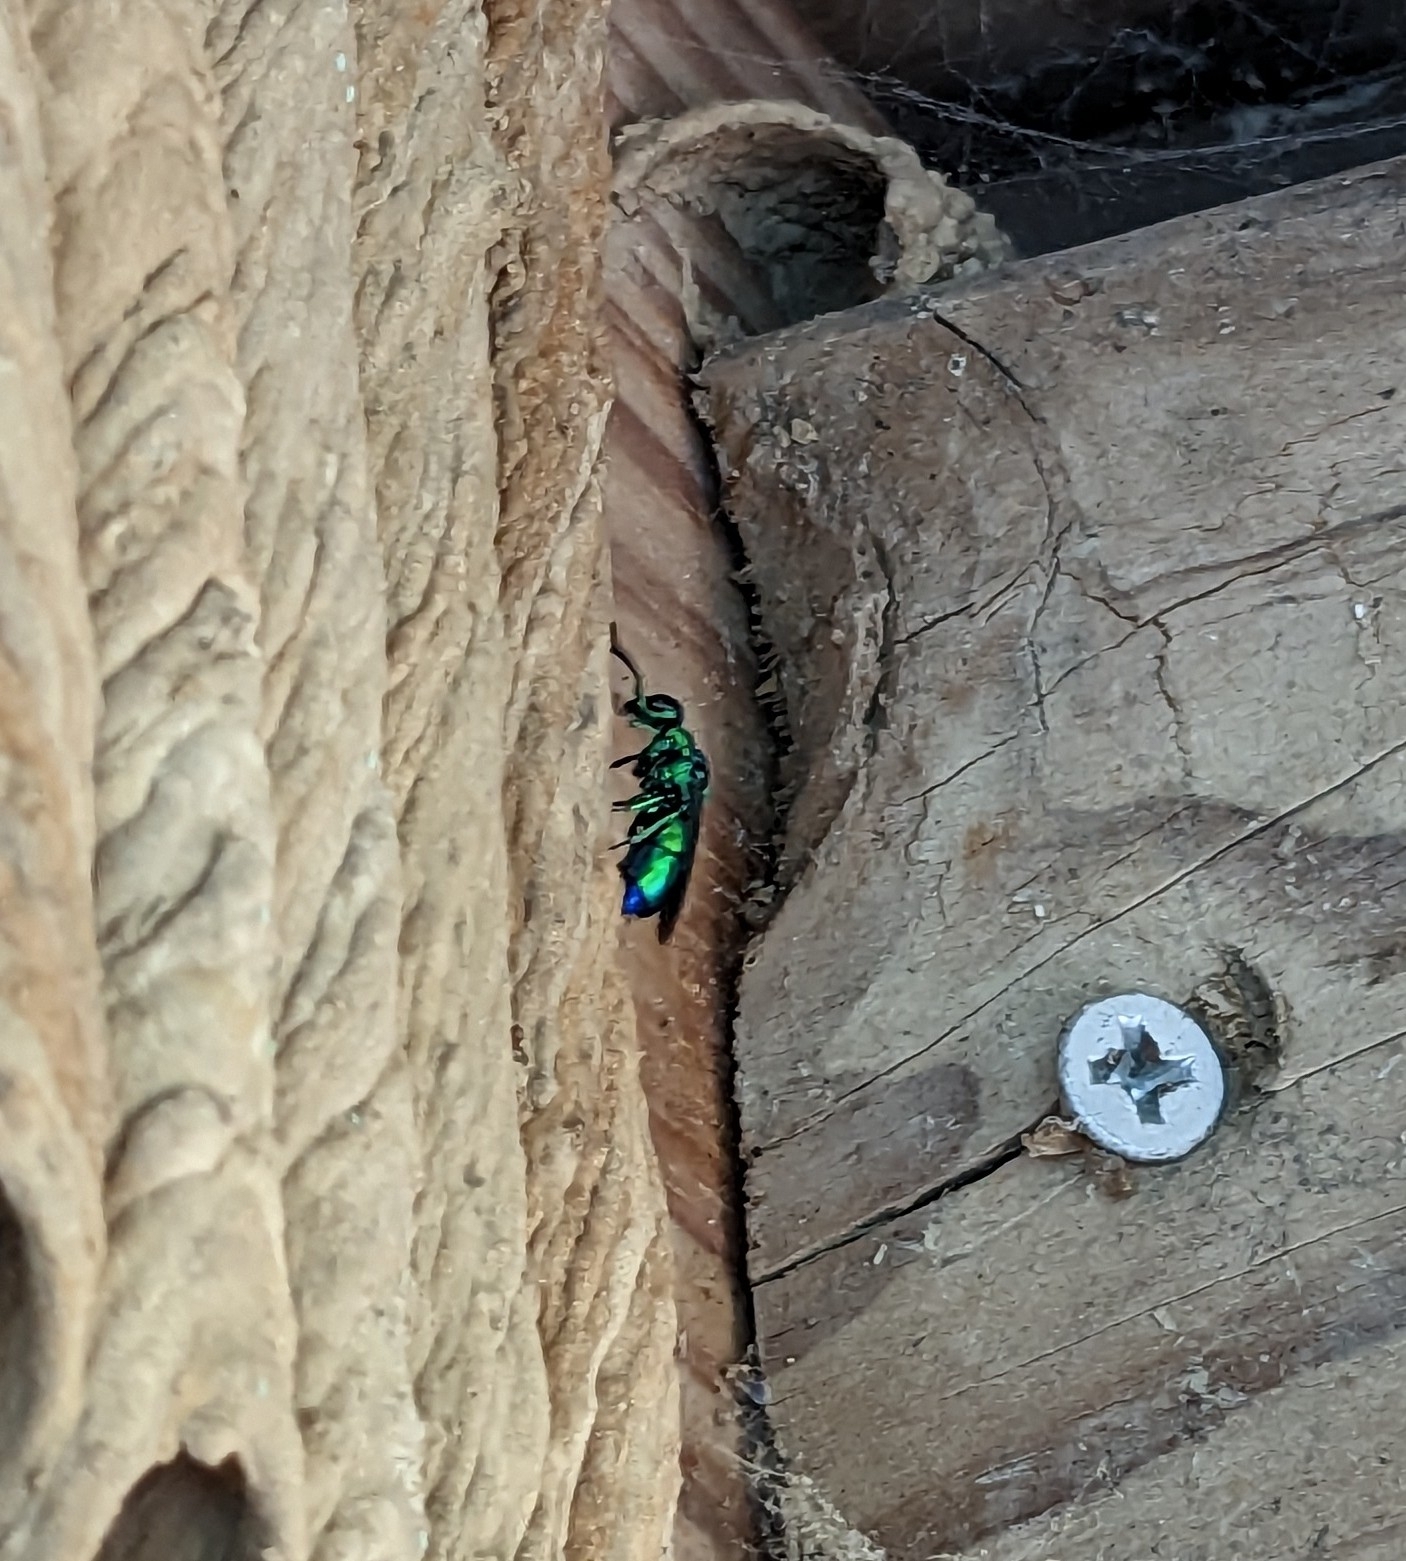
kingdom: Animalia
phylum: Arthropoda
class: Insecta
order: Hymenoptera
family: Chrysididae
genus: Chrysis
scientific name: Chrysis angolensis
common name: Cuckoo wasp
